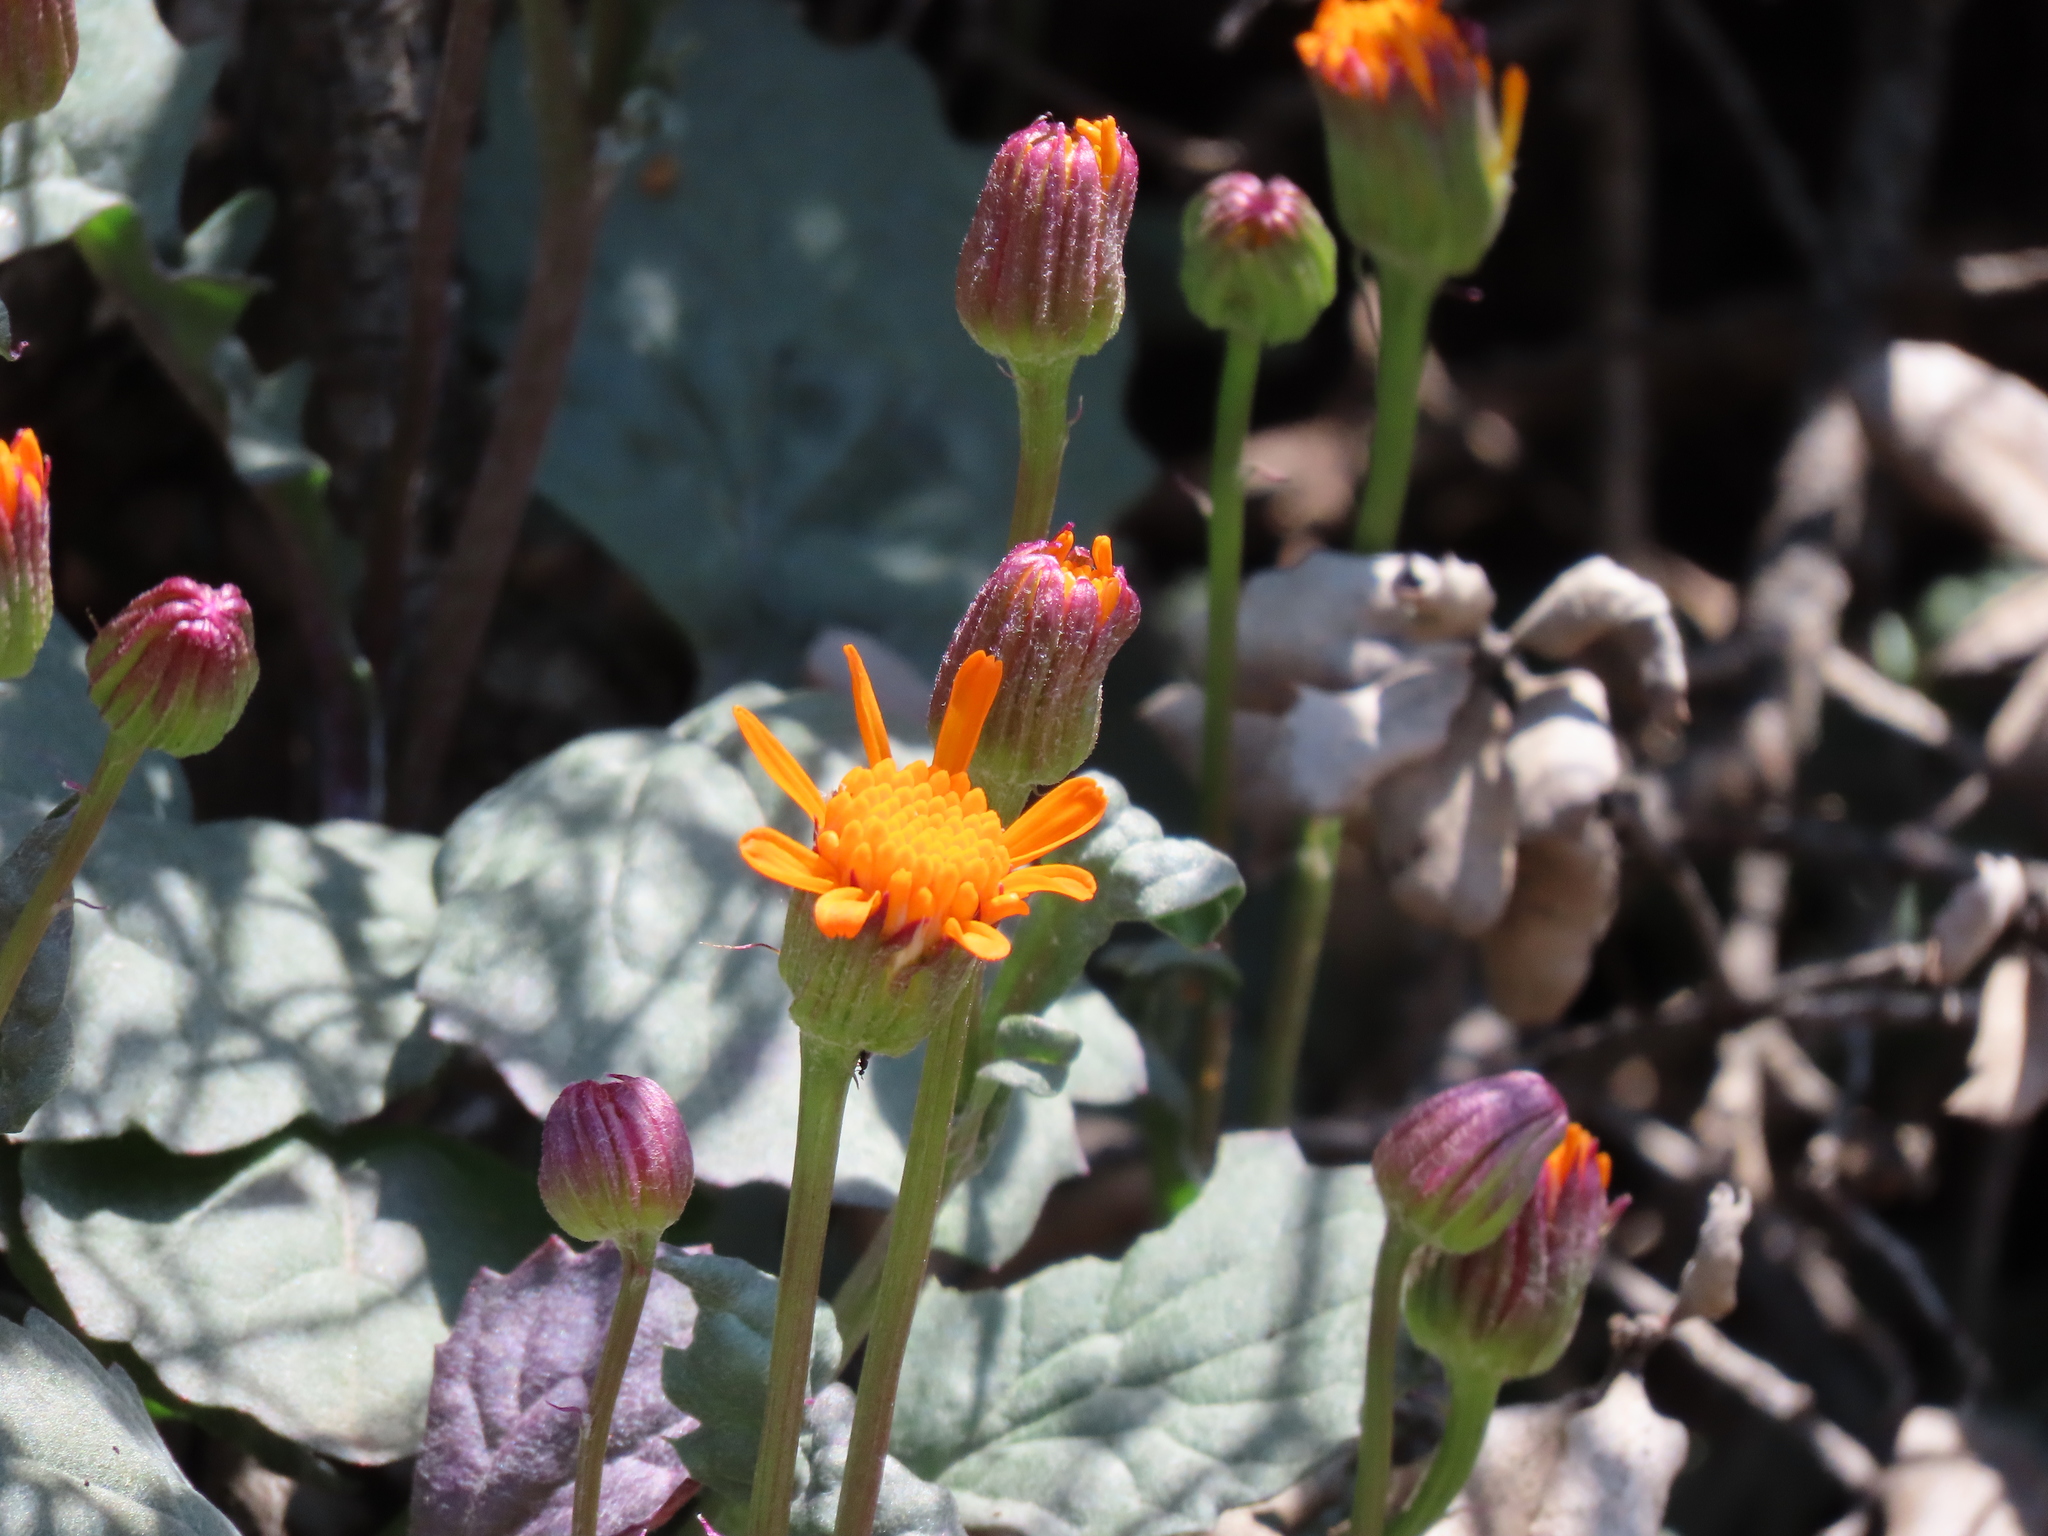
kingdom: Plantae
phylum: Tracheophyta
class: Magnoliopsida
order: Asterales
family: Asteraceae
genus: Packera
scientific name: Packera greenei
